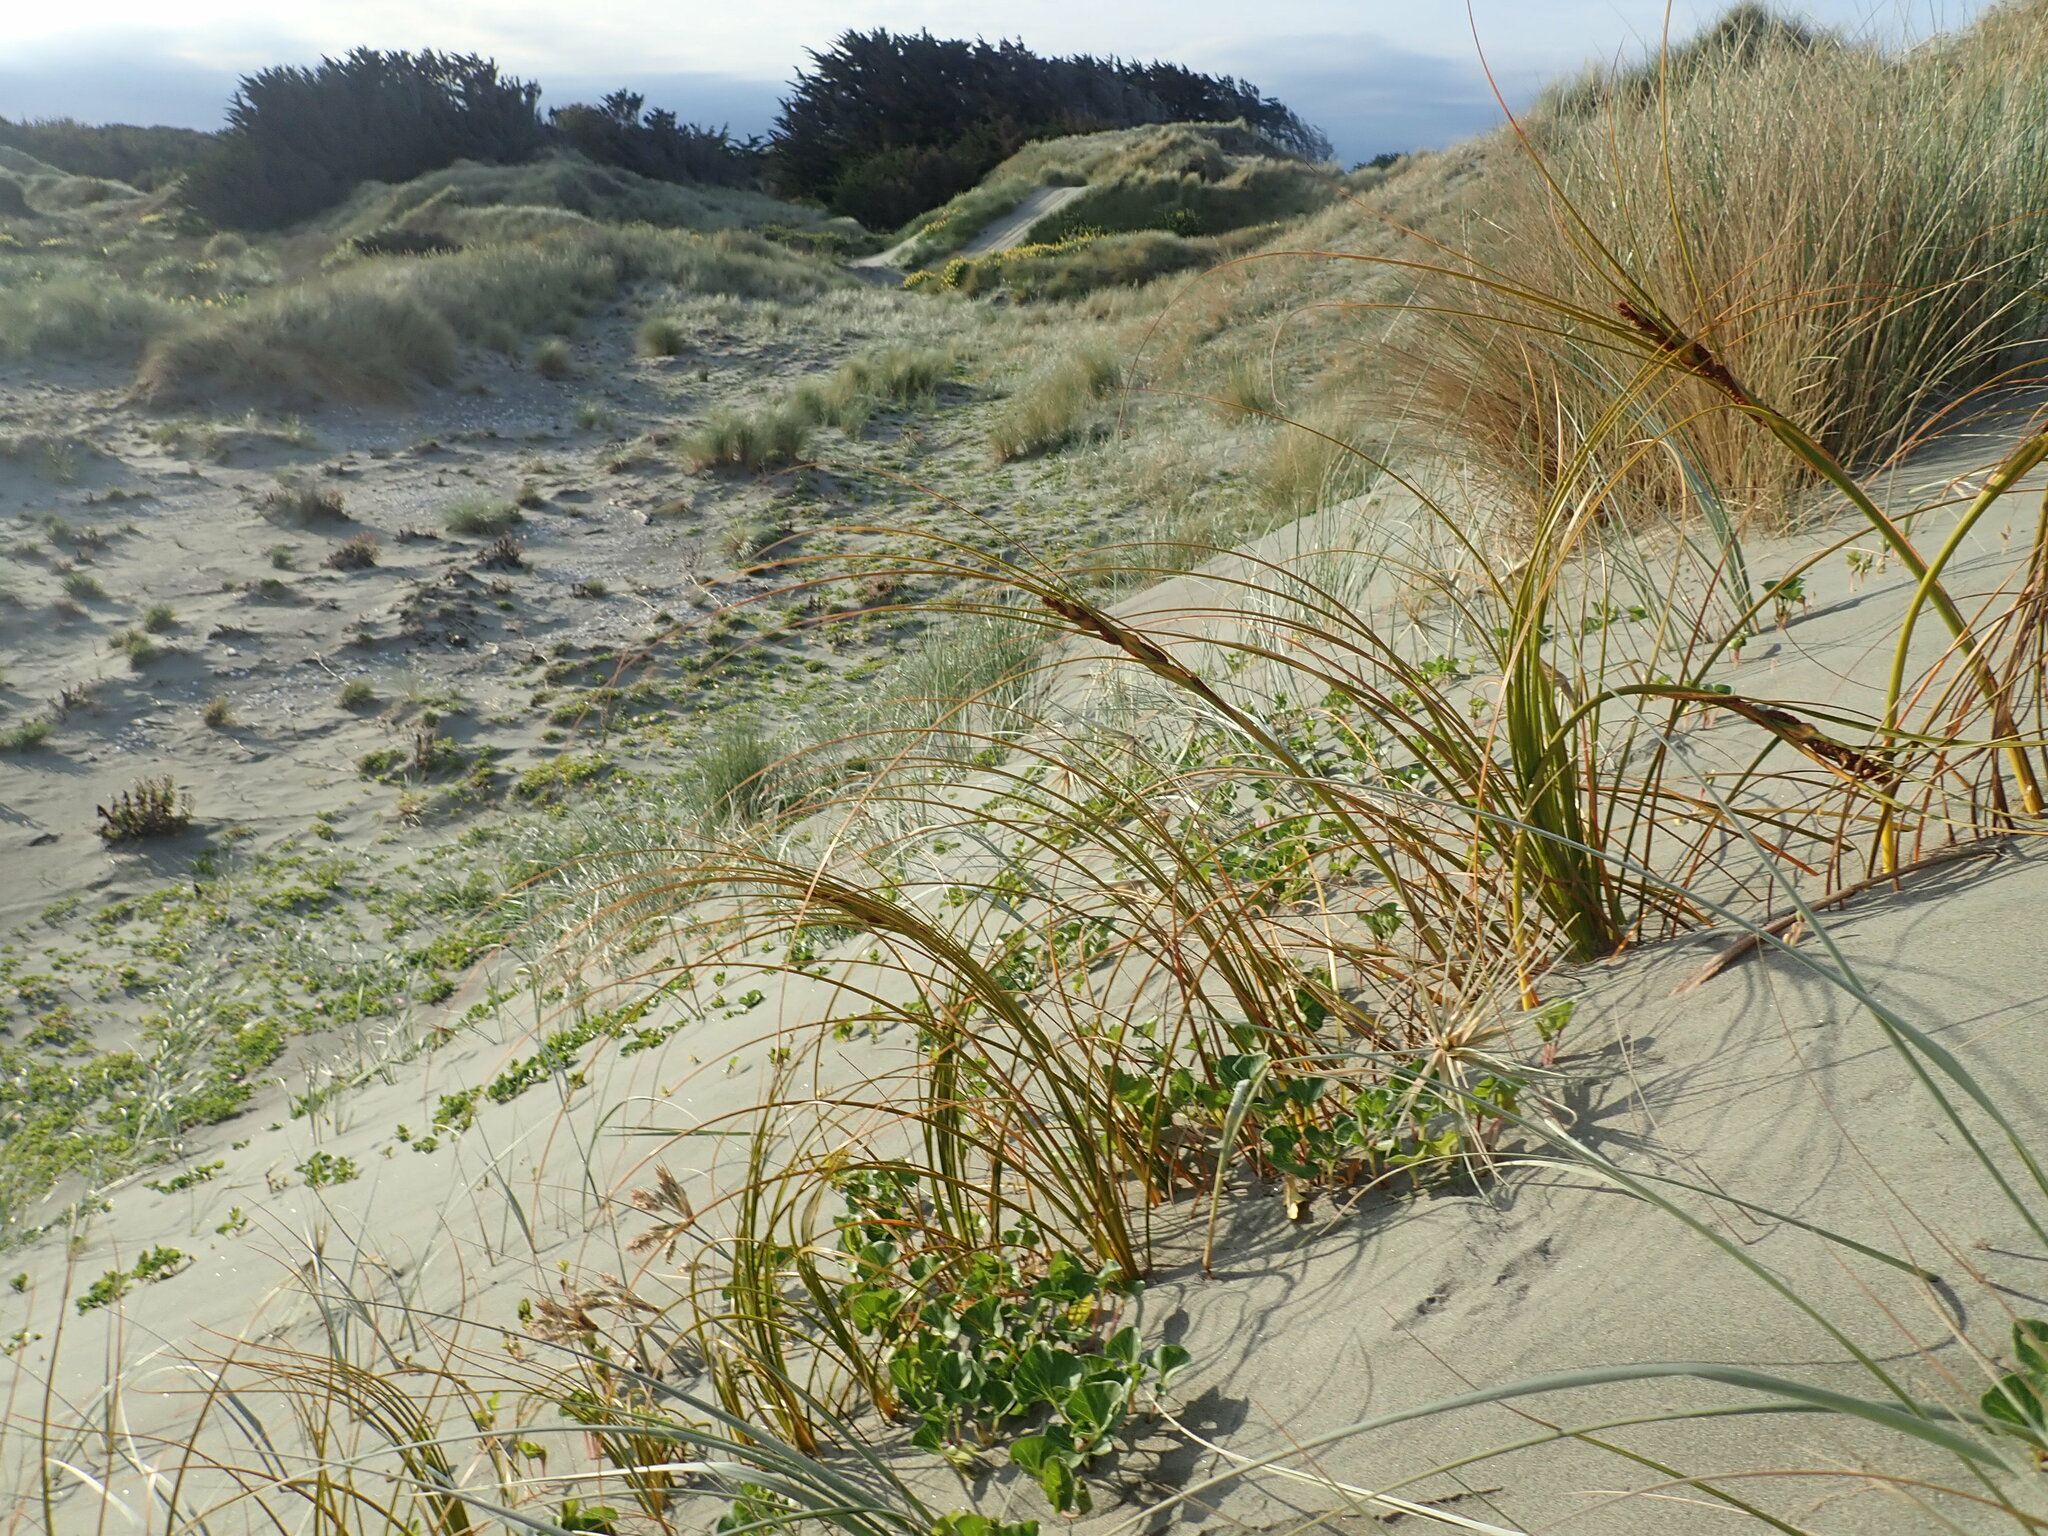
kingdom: Plantae
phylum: Tracheophyta
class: Liliopsida
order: Poales
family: Cyperaceae
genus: Ficinia
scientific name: Ficinia spiralis
